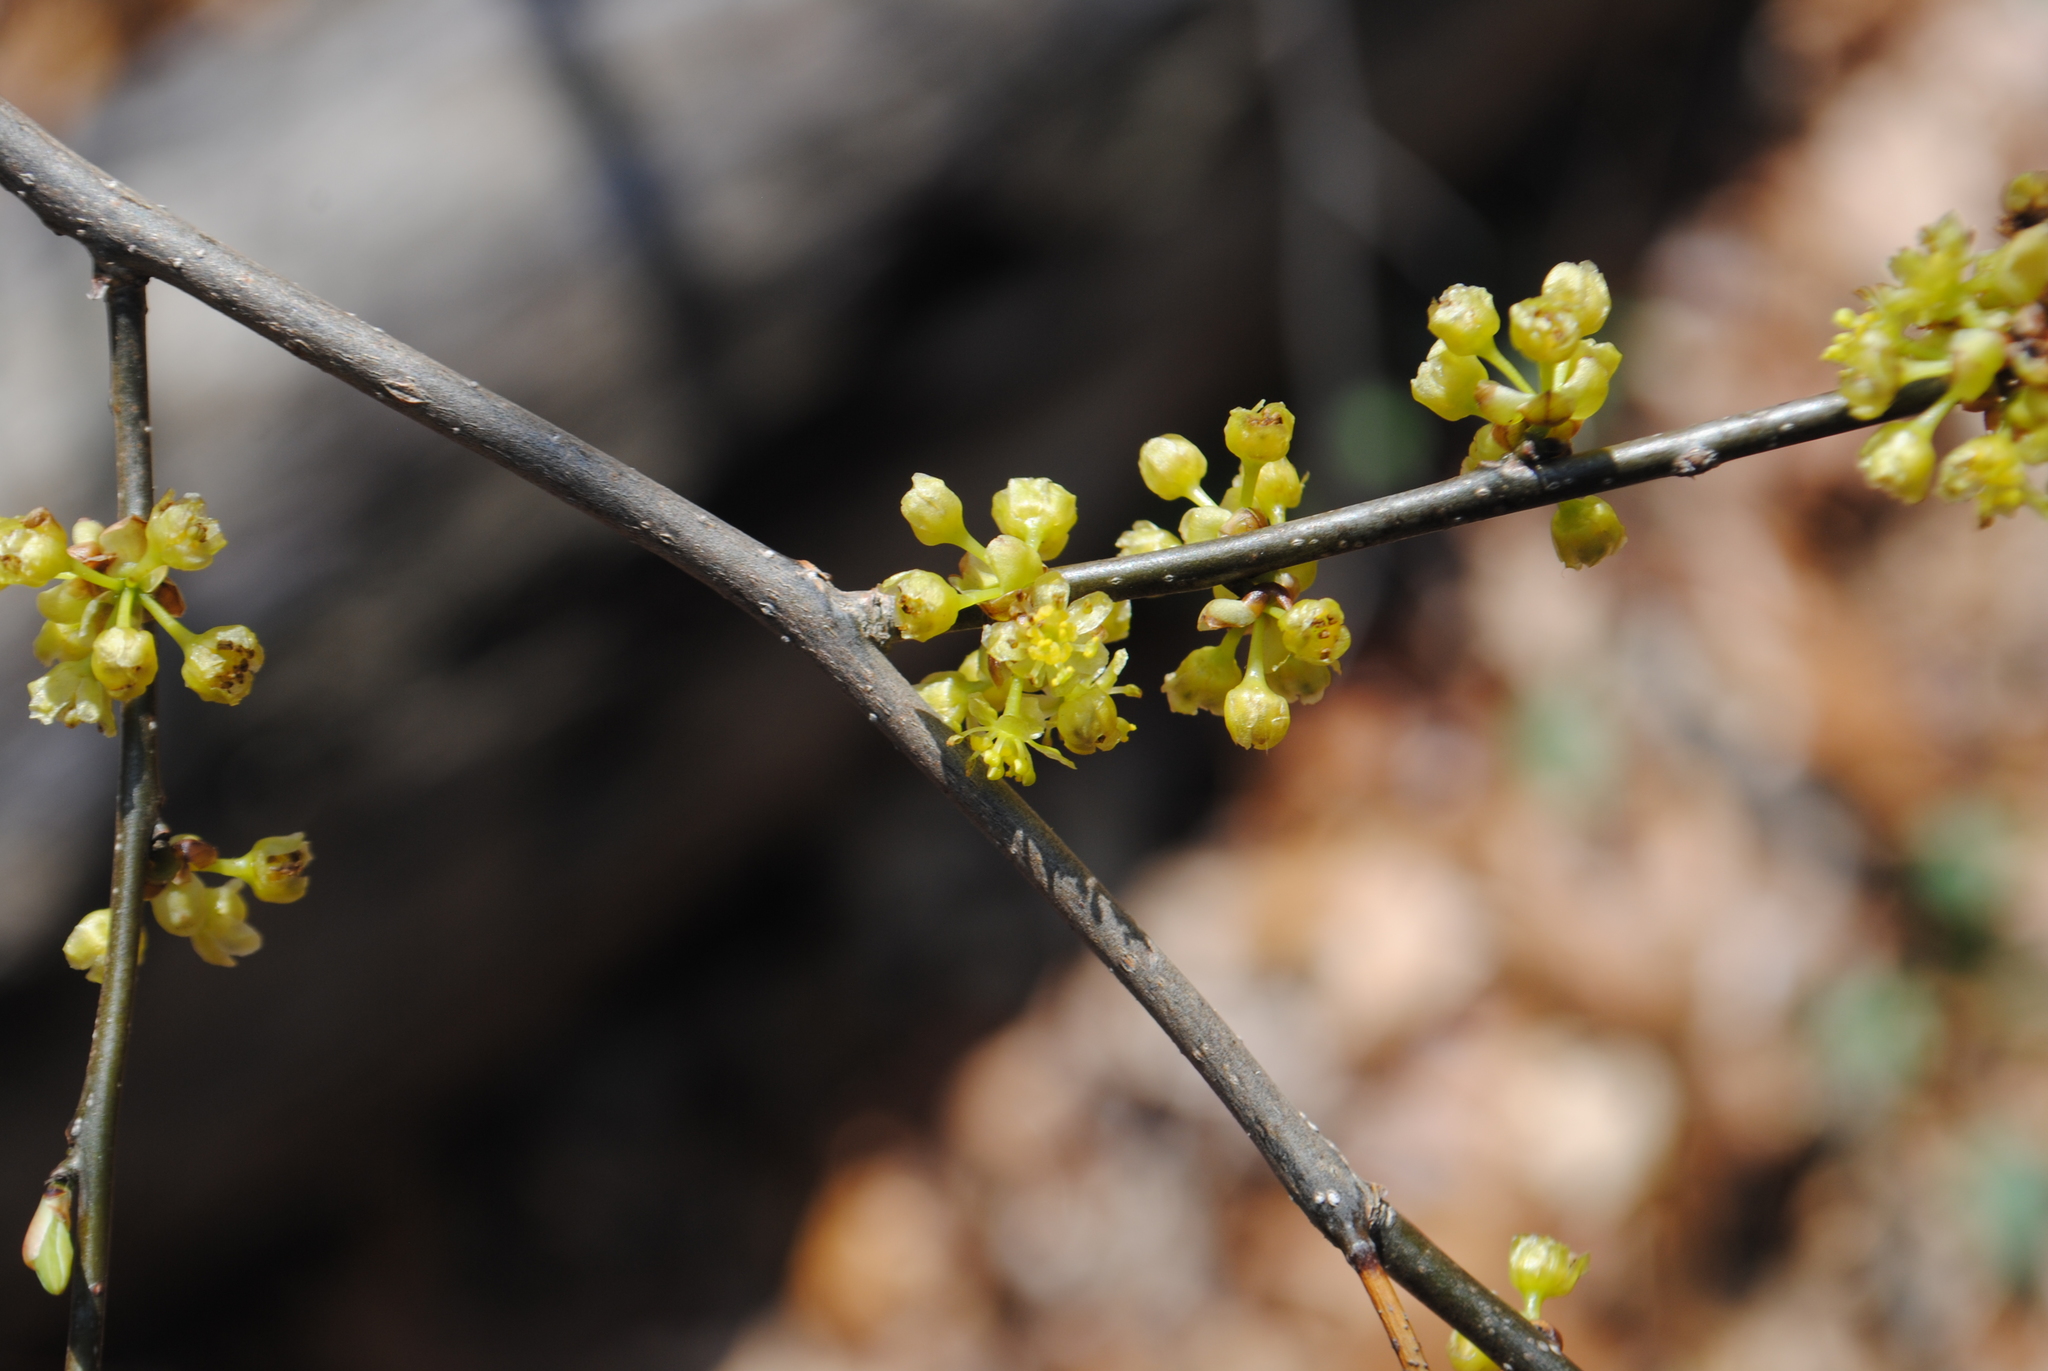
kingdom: Plantae
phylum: Tracheophyta
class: Magnoliopsida
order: Laurales
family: Lauraceae
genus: Lindera
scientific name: Lindera benzoin
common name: Spicebush
